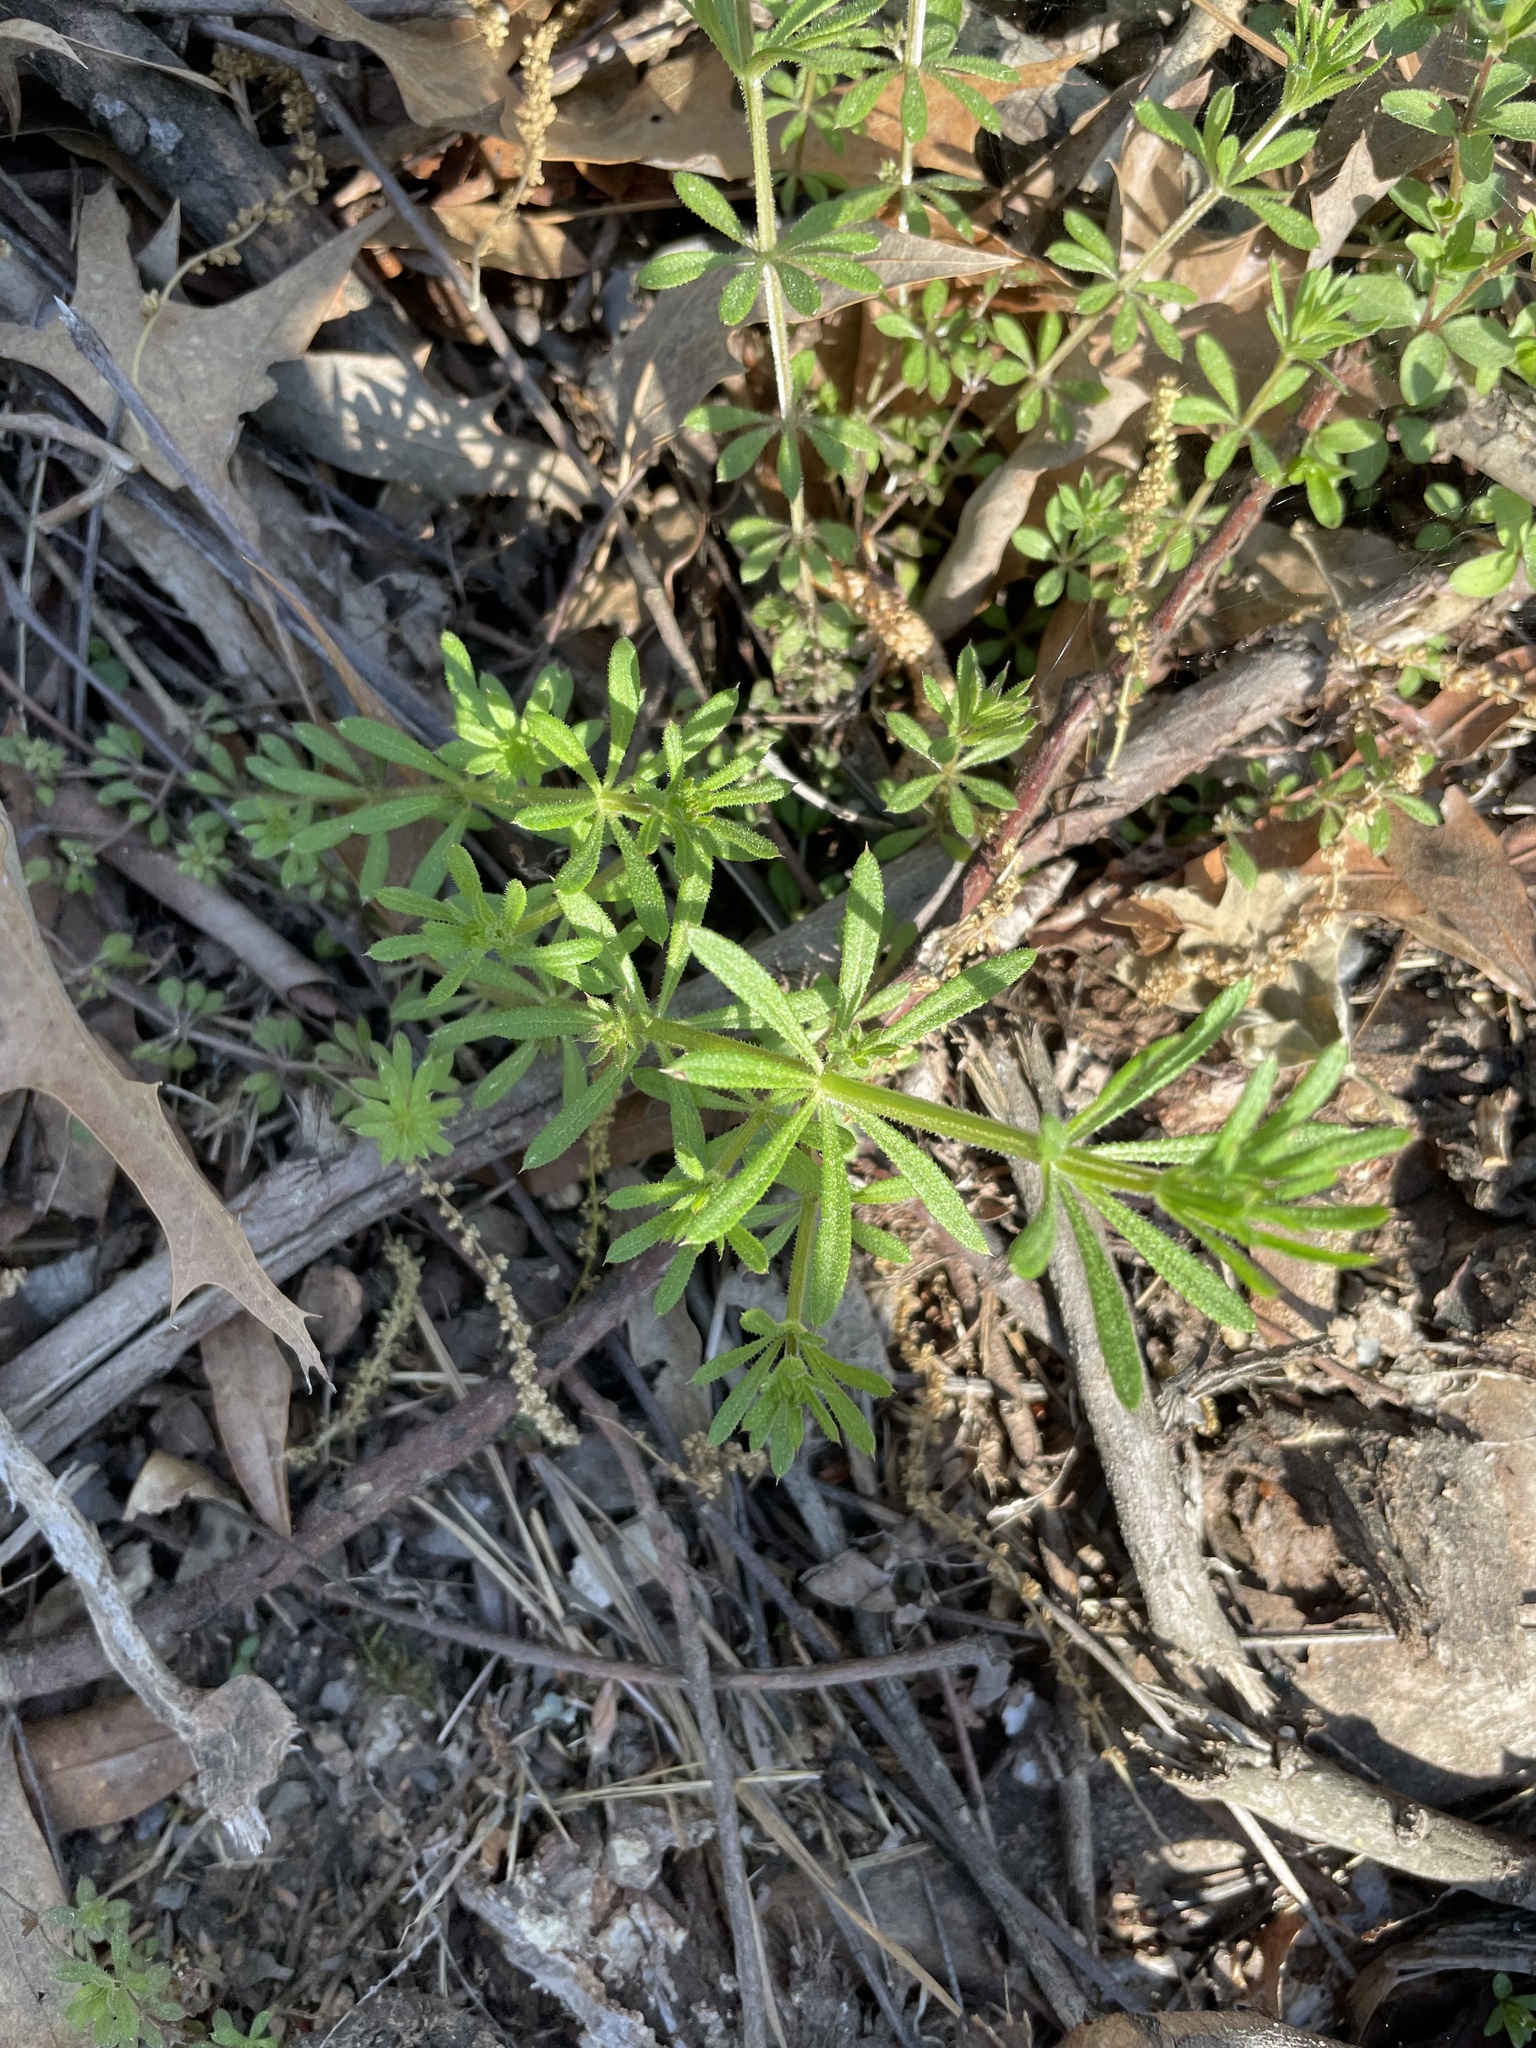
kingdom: Plantae
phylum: Tracheophyta
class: Magnoliopsida
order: Gentianales
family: Rubiaceae
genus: Galium
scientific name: Galium aparine
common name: Cleavers
